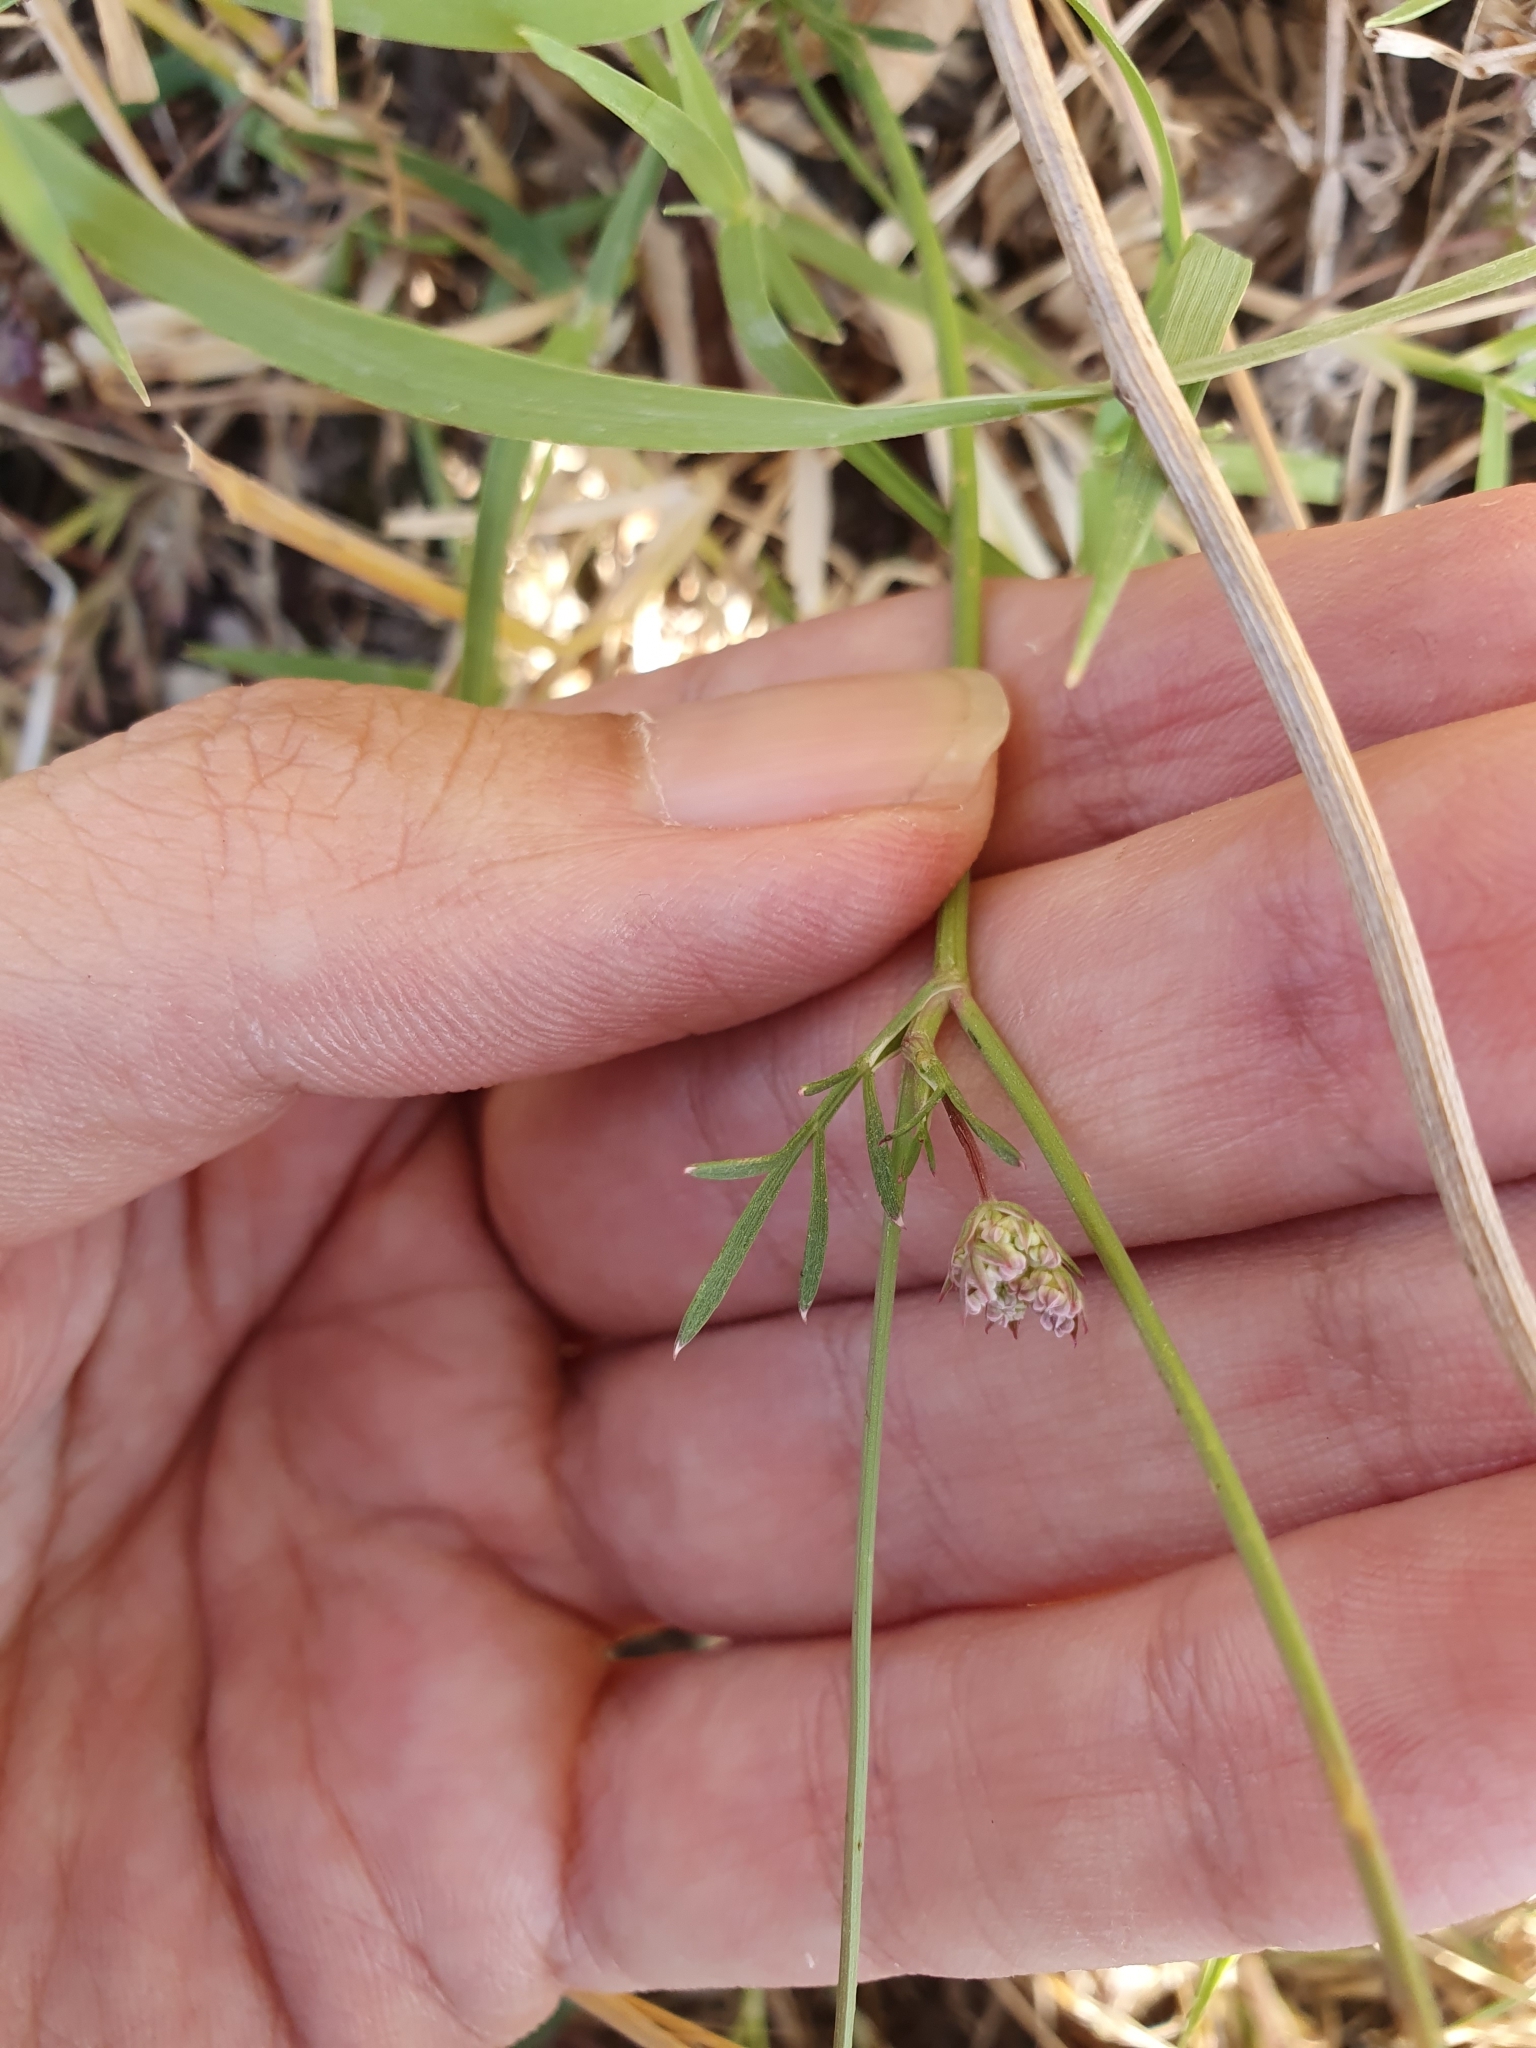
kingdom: Plantae
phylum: Tracheophyta
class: Magnoliopsida
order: Apiales
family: Apiaceae
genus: Daucus
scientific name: Daucus virgatus
